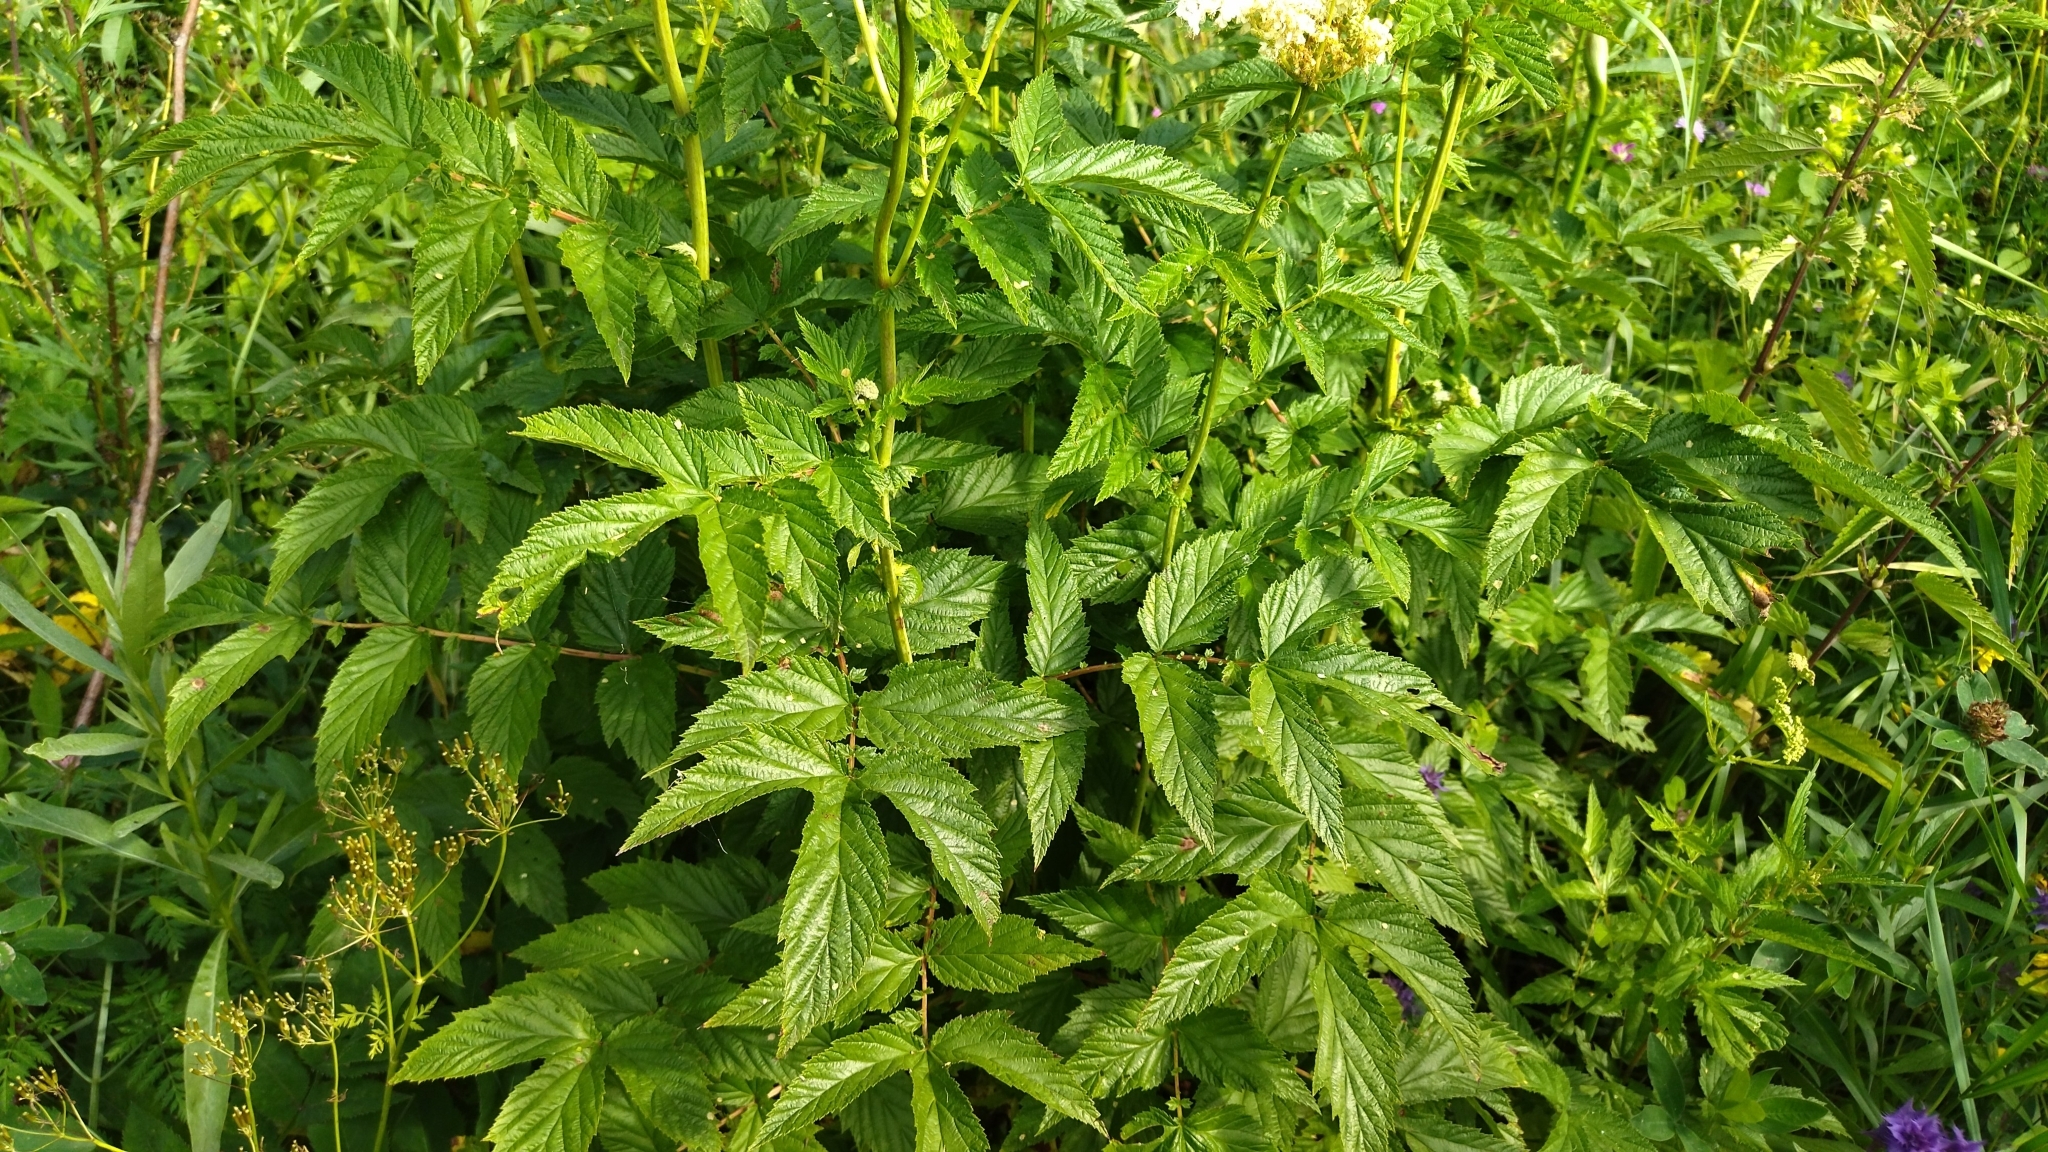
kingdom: Plantae
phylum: Tracheophyta
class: Magnoliopsida
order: Rosales
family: Rosaceae
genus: Filipendula
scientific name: Filipendula ulmaria
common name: Meadowsweet
